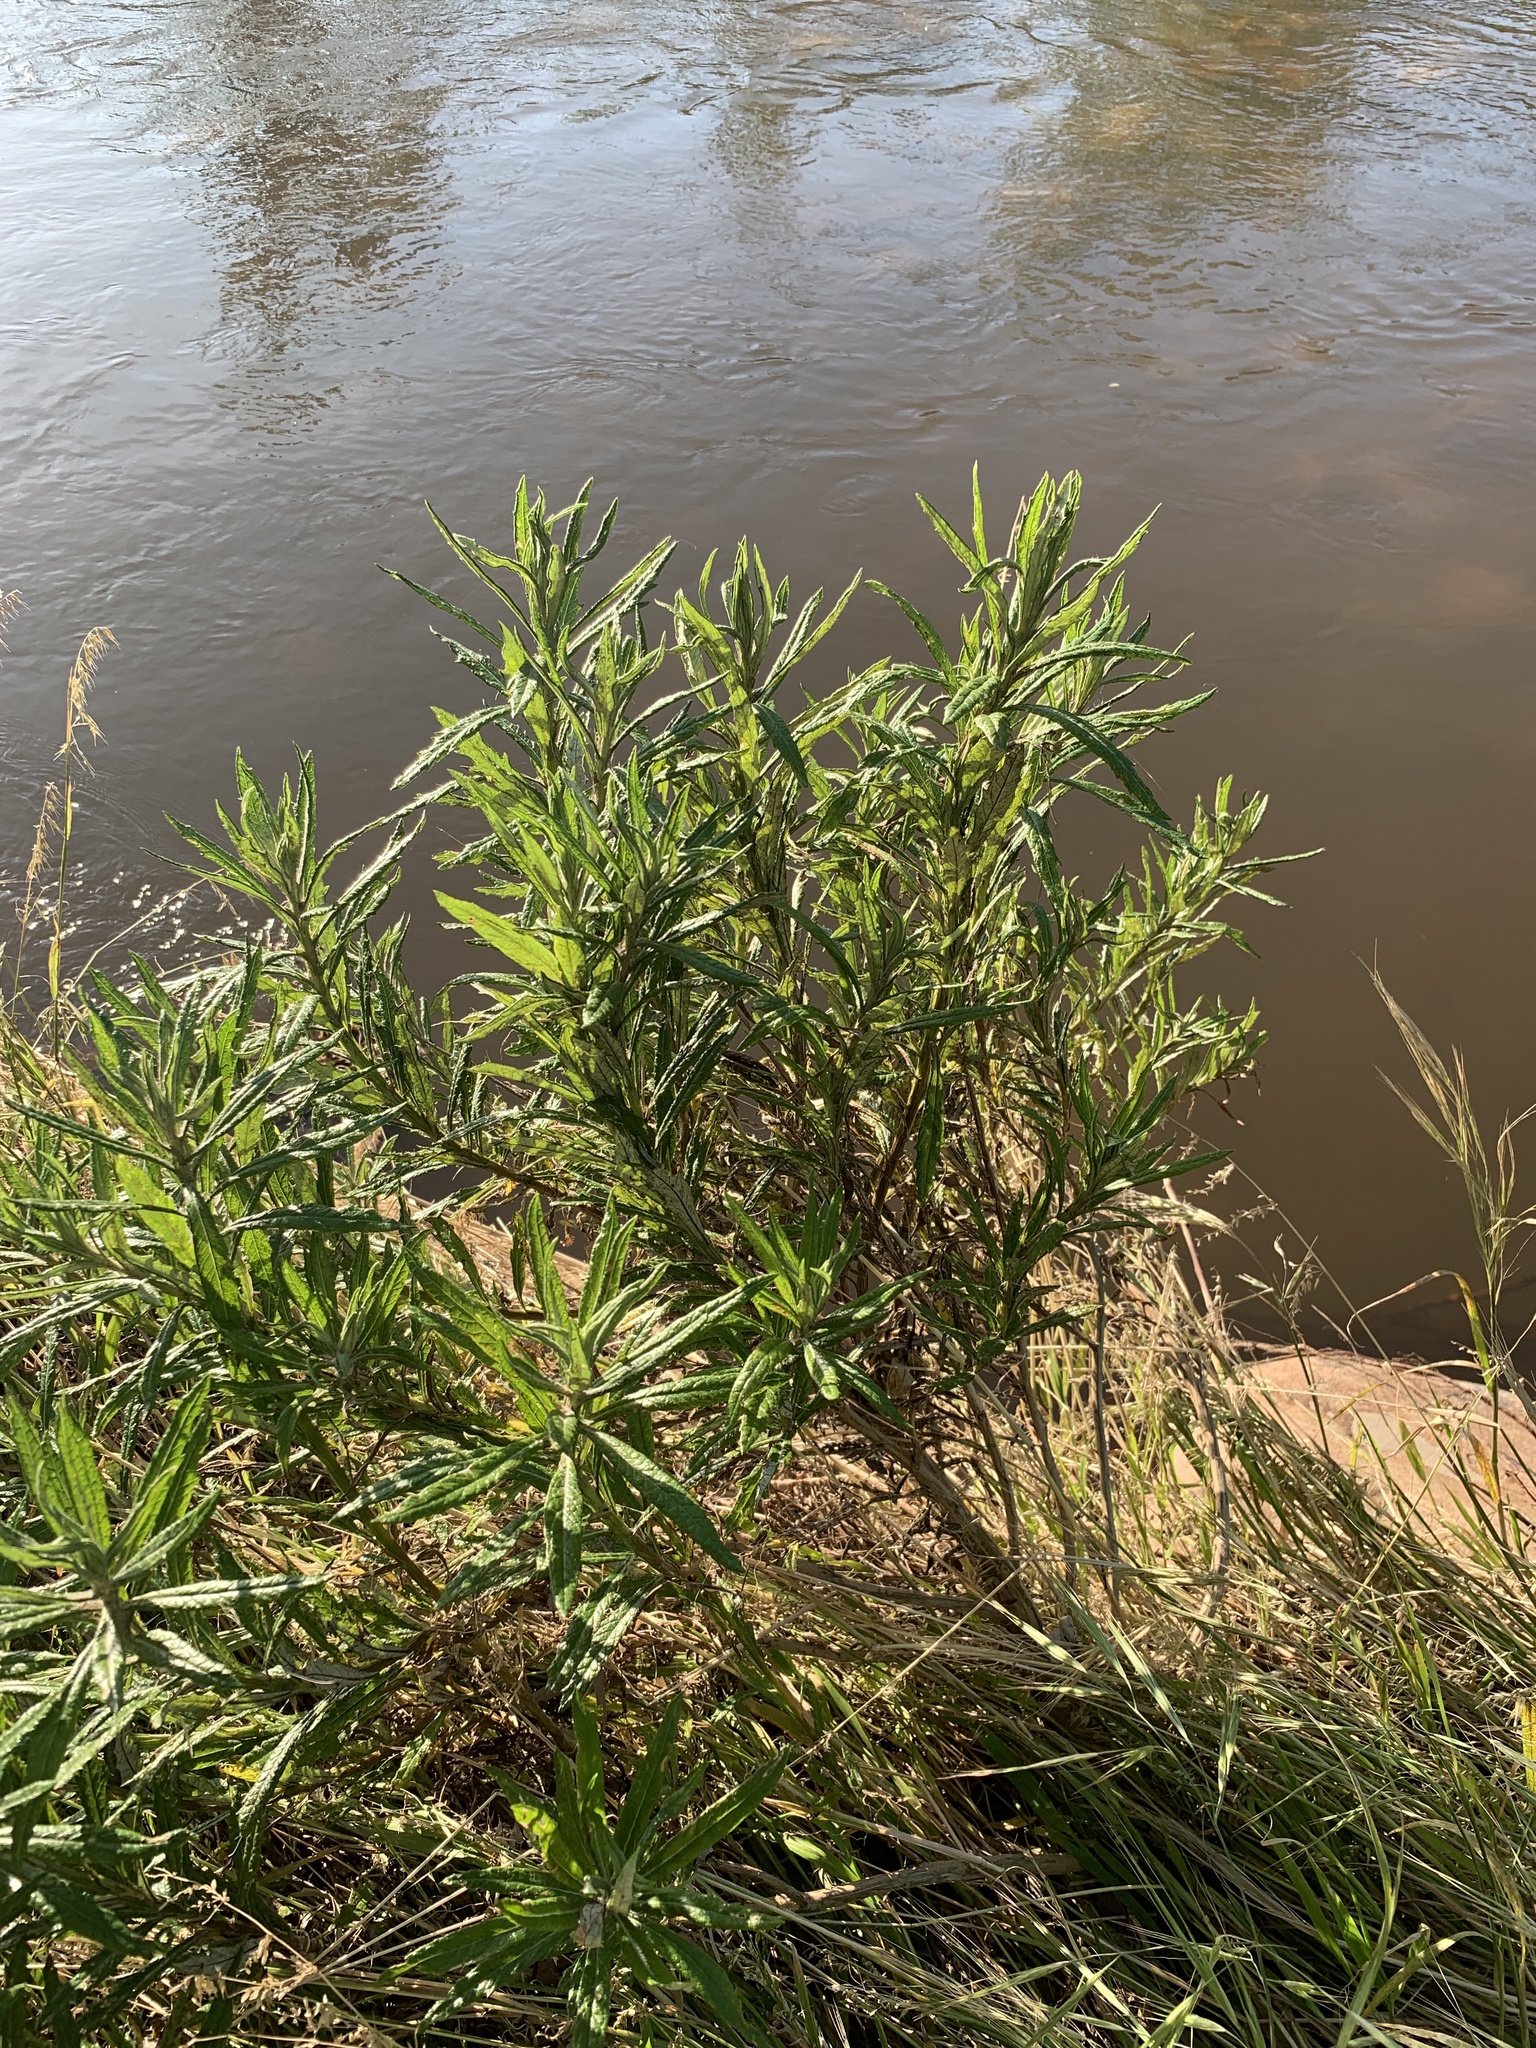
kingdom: Plantae
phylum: Tracheophyta
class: Magnoliopsida
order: Asterales
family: Asteraceae
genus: Senecio
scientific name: Senecio pterophorus
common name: Shoddy ragwort
